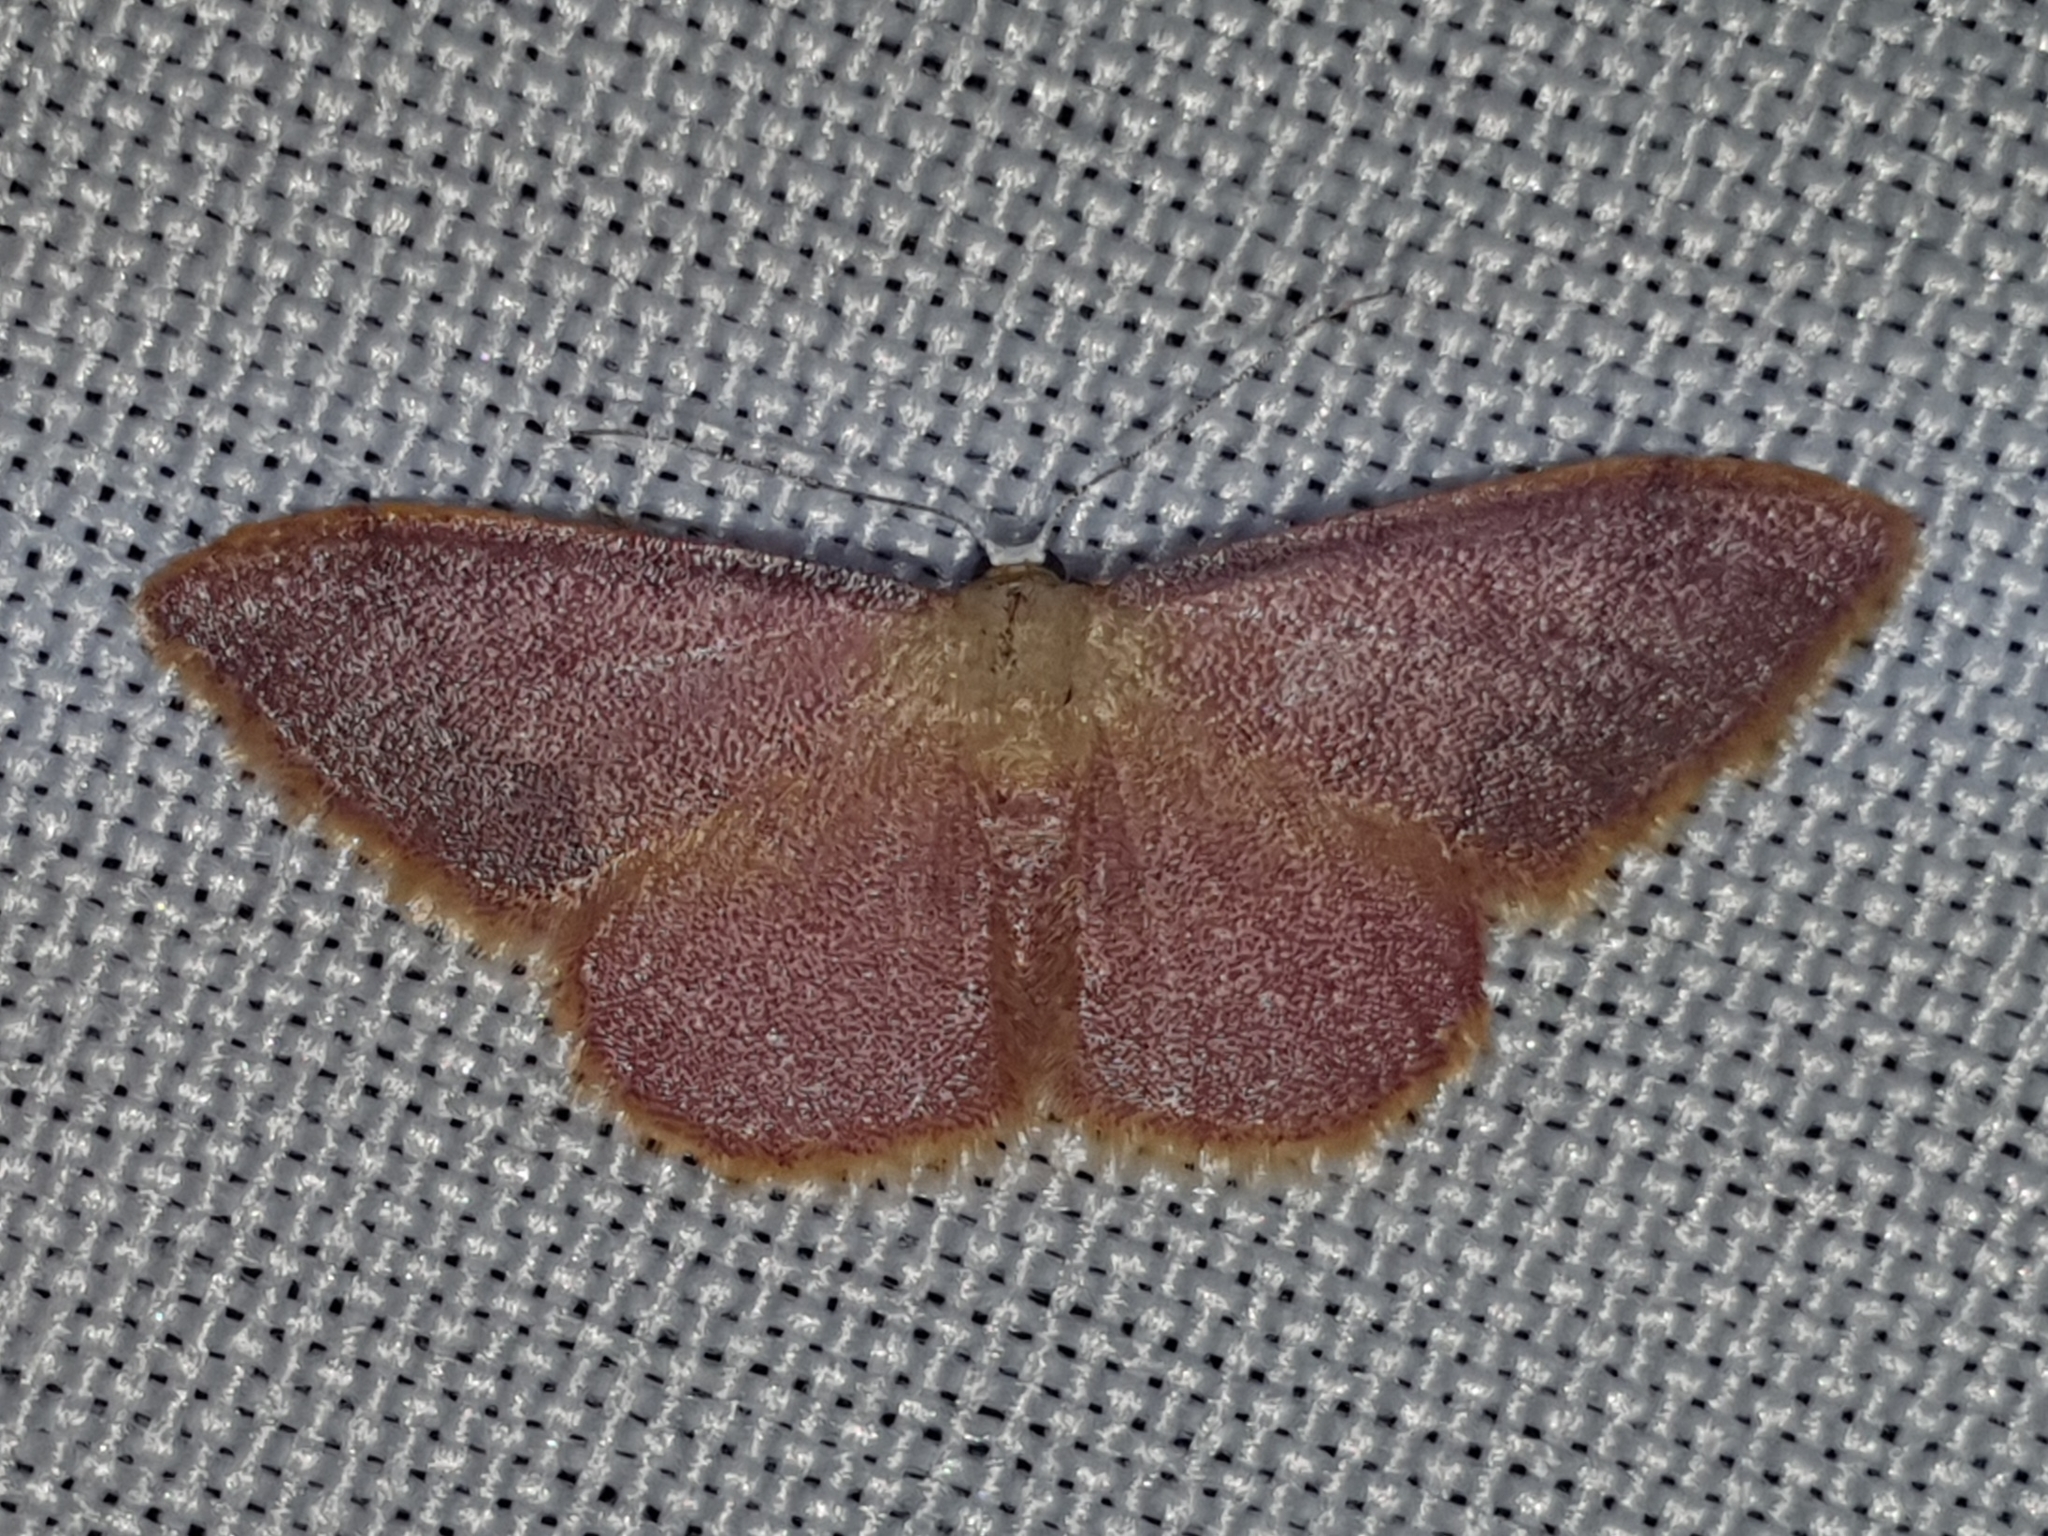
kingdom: Animalia
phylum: Arthropoda
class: Insecta
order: Lepidoptera
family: Geometridae
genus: Idaea
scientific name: Idaea ostrinaria
